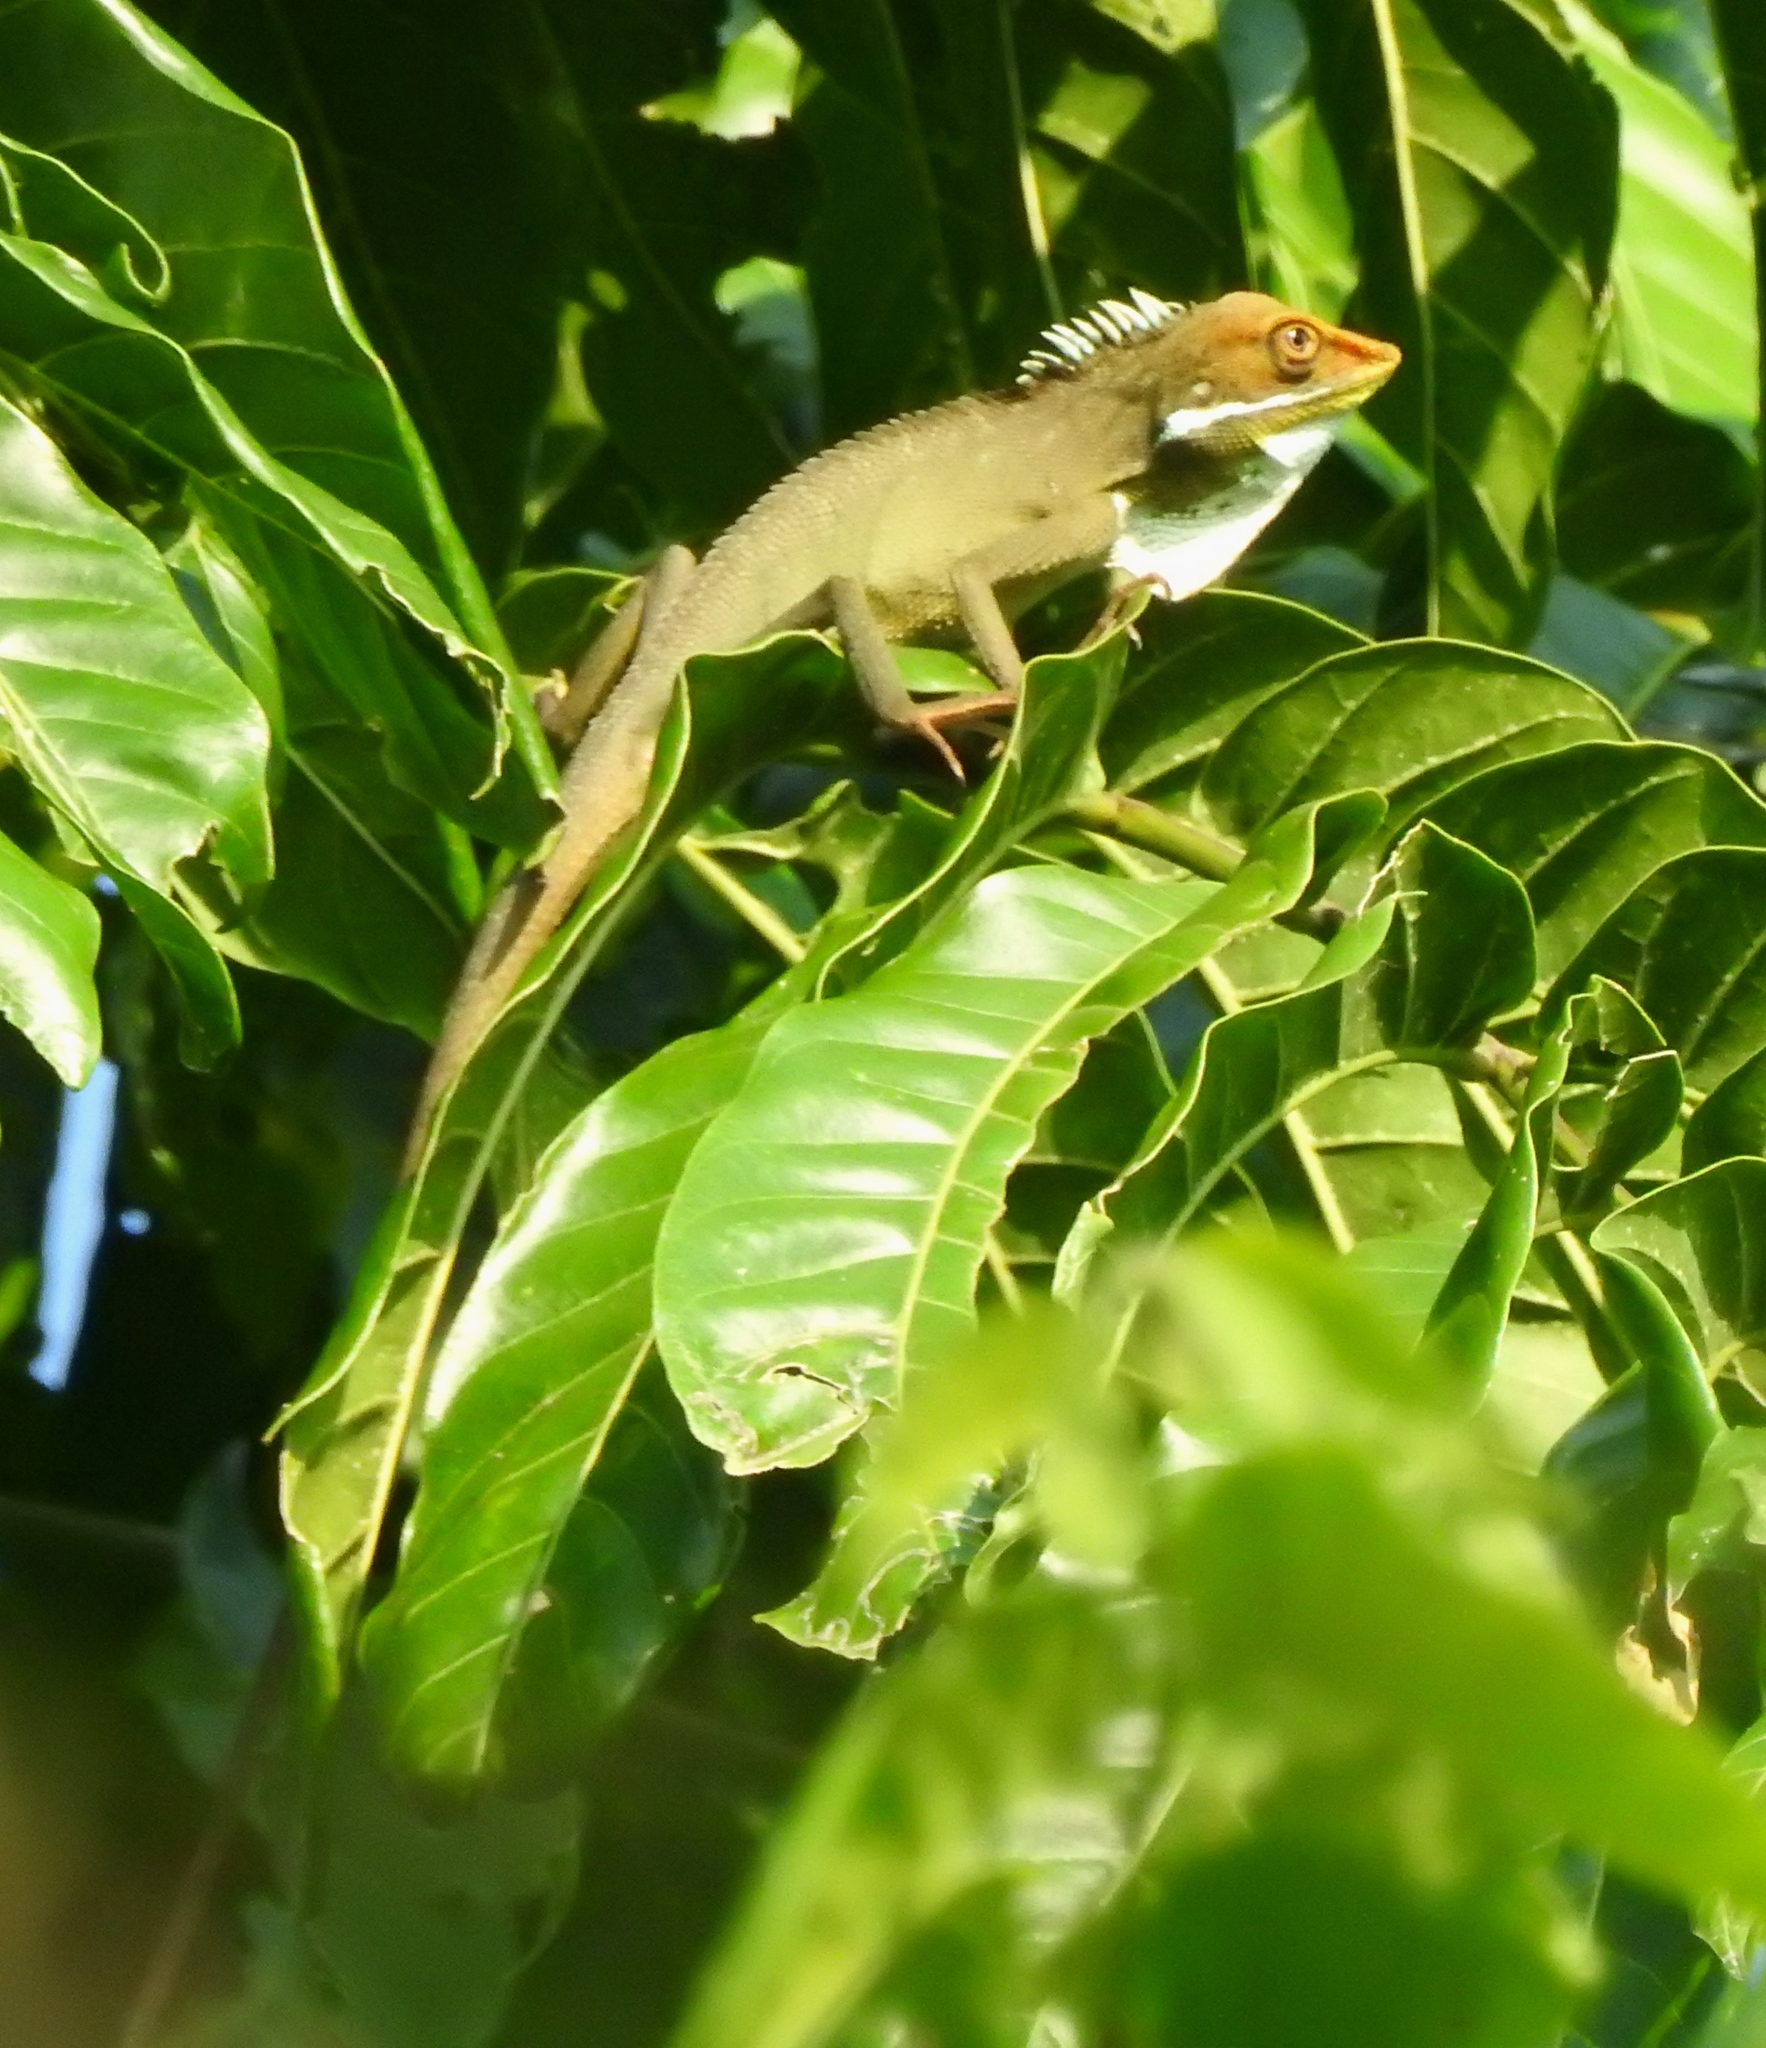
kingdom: Animalia
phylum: Chordata
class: Squamata
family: Agamidae
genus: Bronchocela
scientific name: Bronchocela marmorata
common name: Marbled bloodsucker
